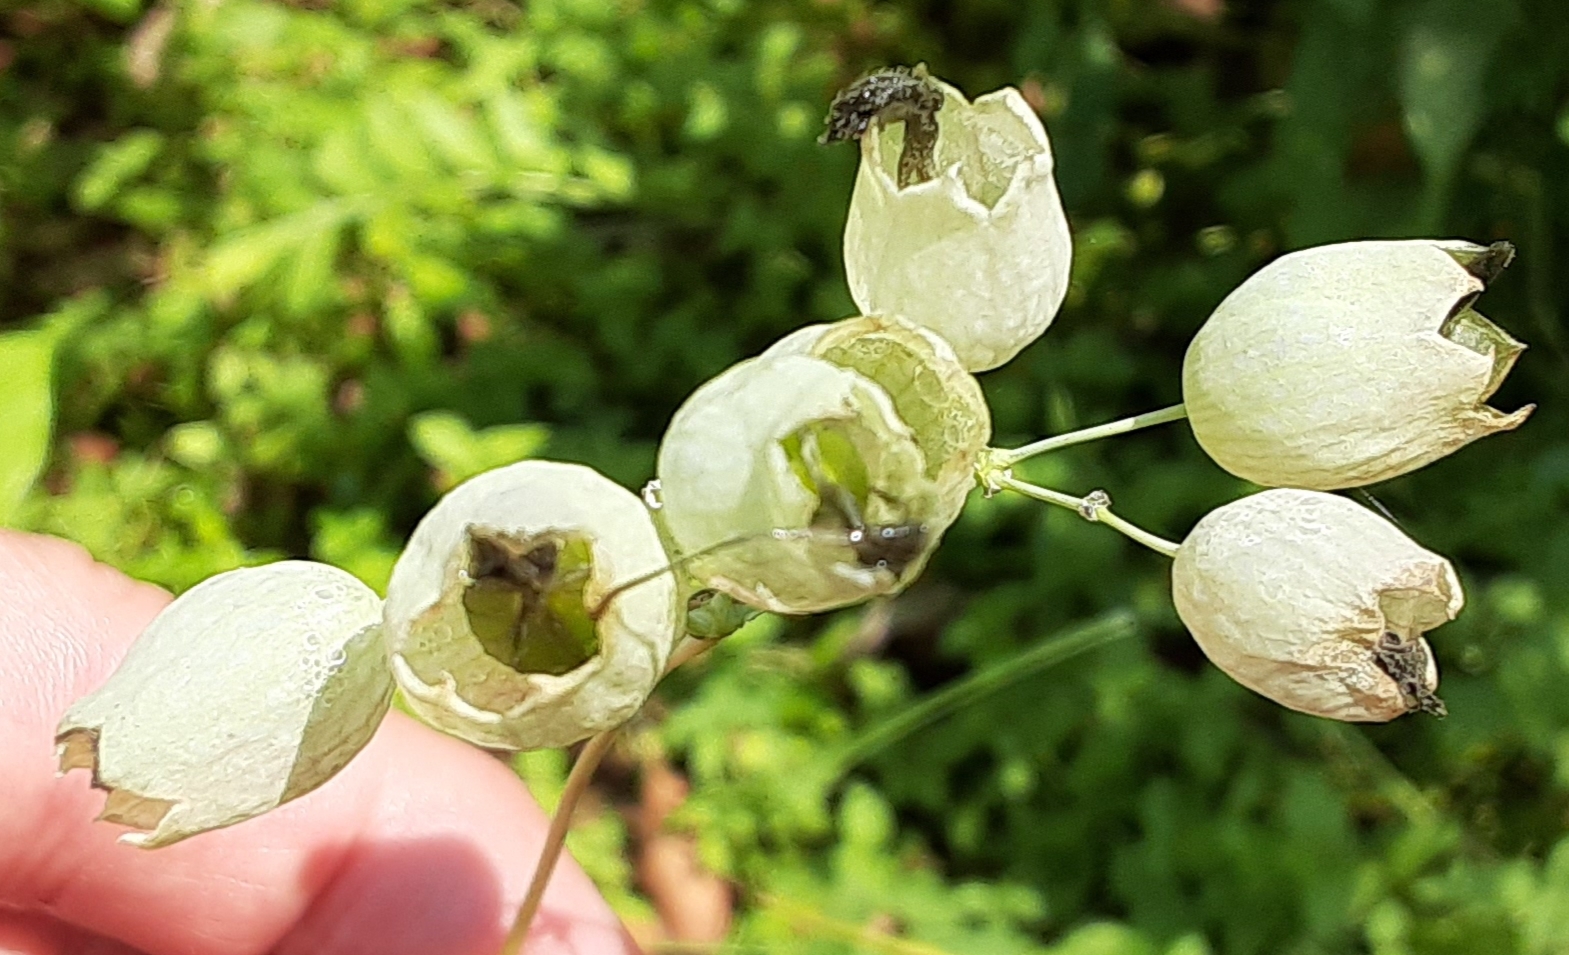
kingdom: Plantae
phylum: Tracheophyta
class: Magnoliopsida
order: Caryophyllales
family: Caryophyllaceae
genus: Silene
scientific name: Silene vulgaris
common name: Bladder campion
